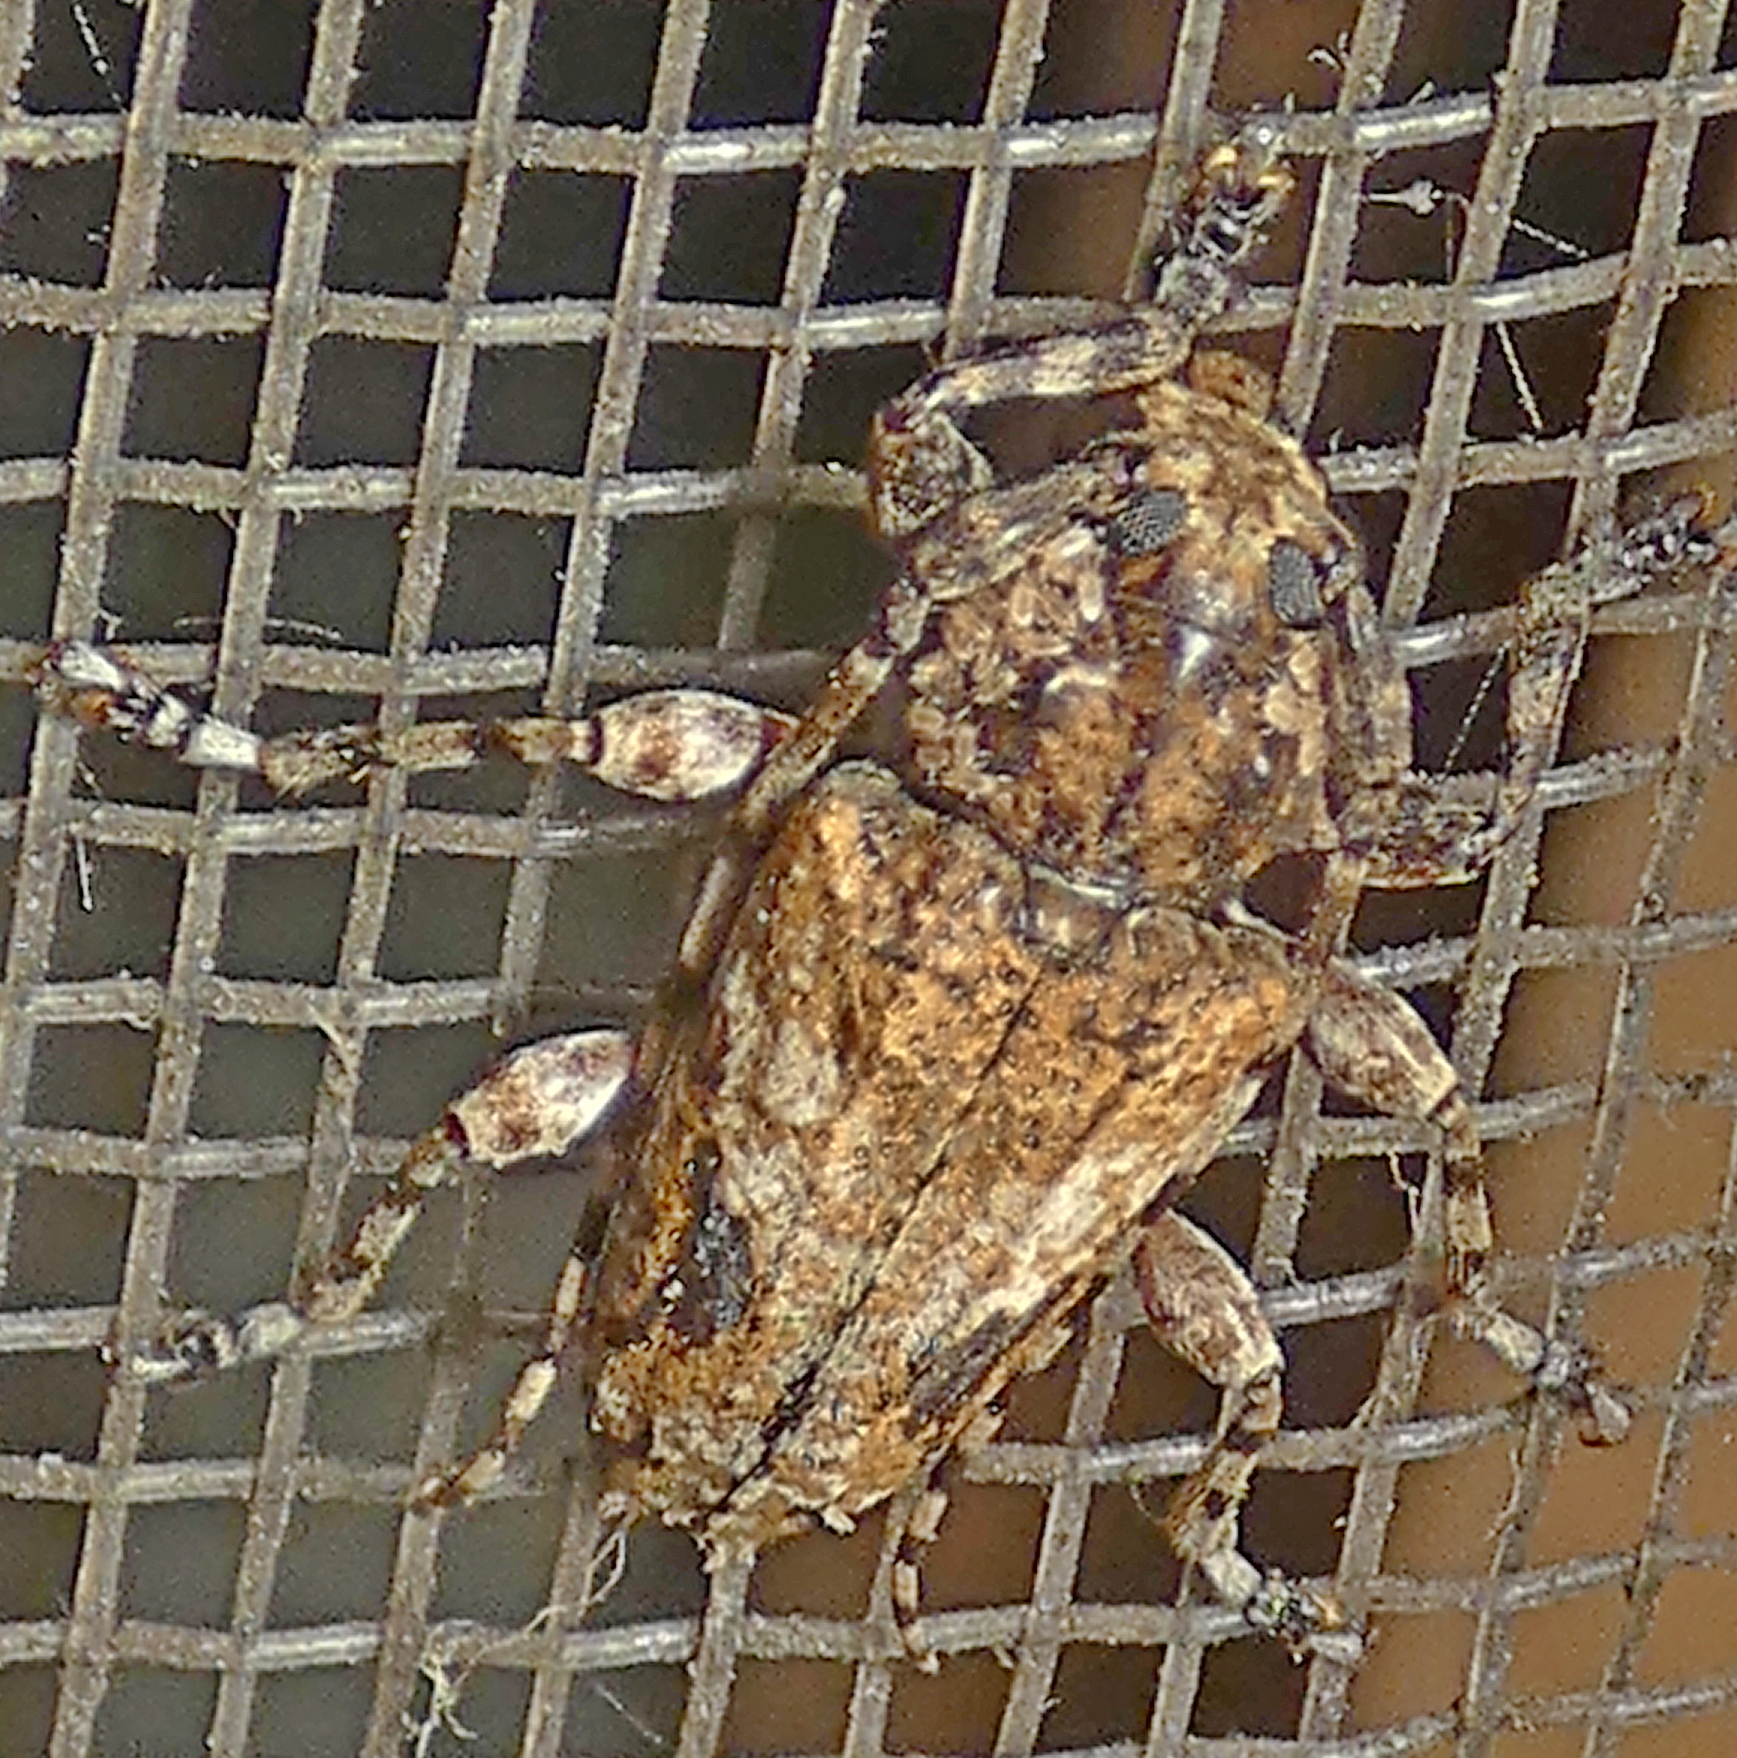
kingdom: Animalia
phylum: Arthropoda
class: Insecta
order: Coleoptera
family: Cerambycidae
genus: Psapharochrus
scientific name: Psapharochrus brunnescens
